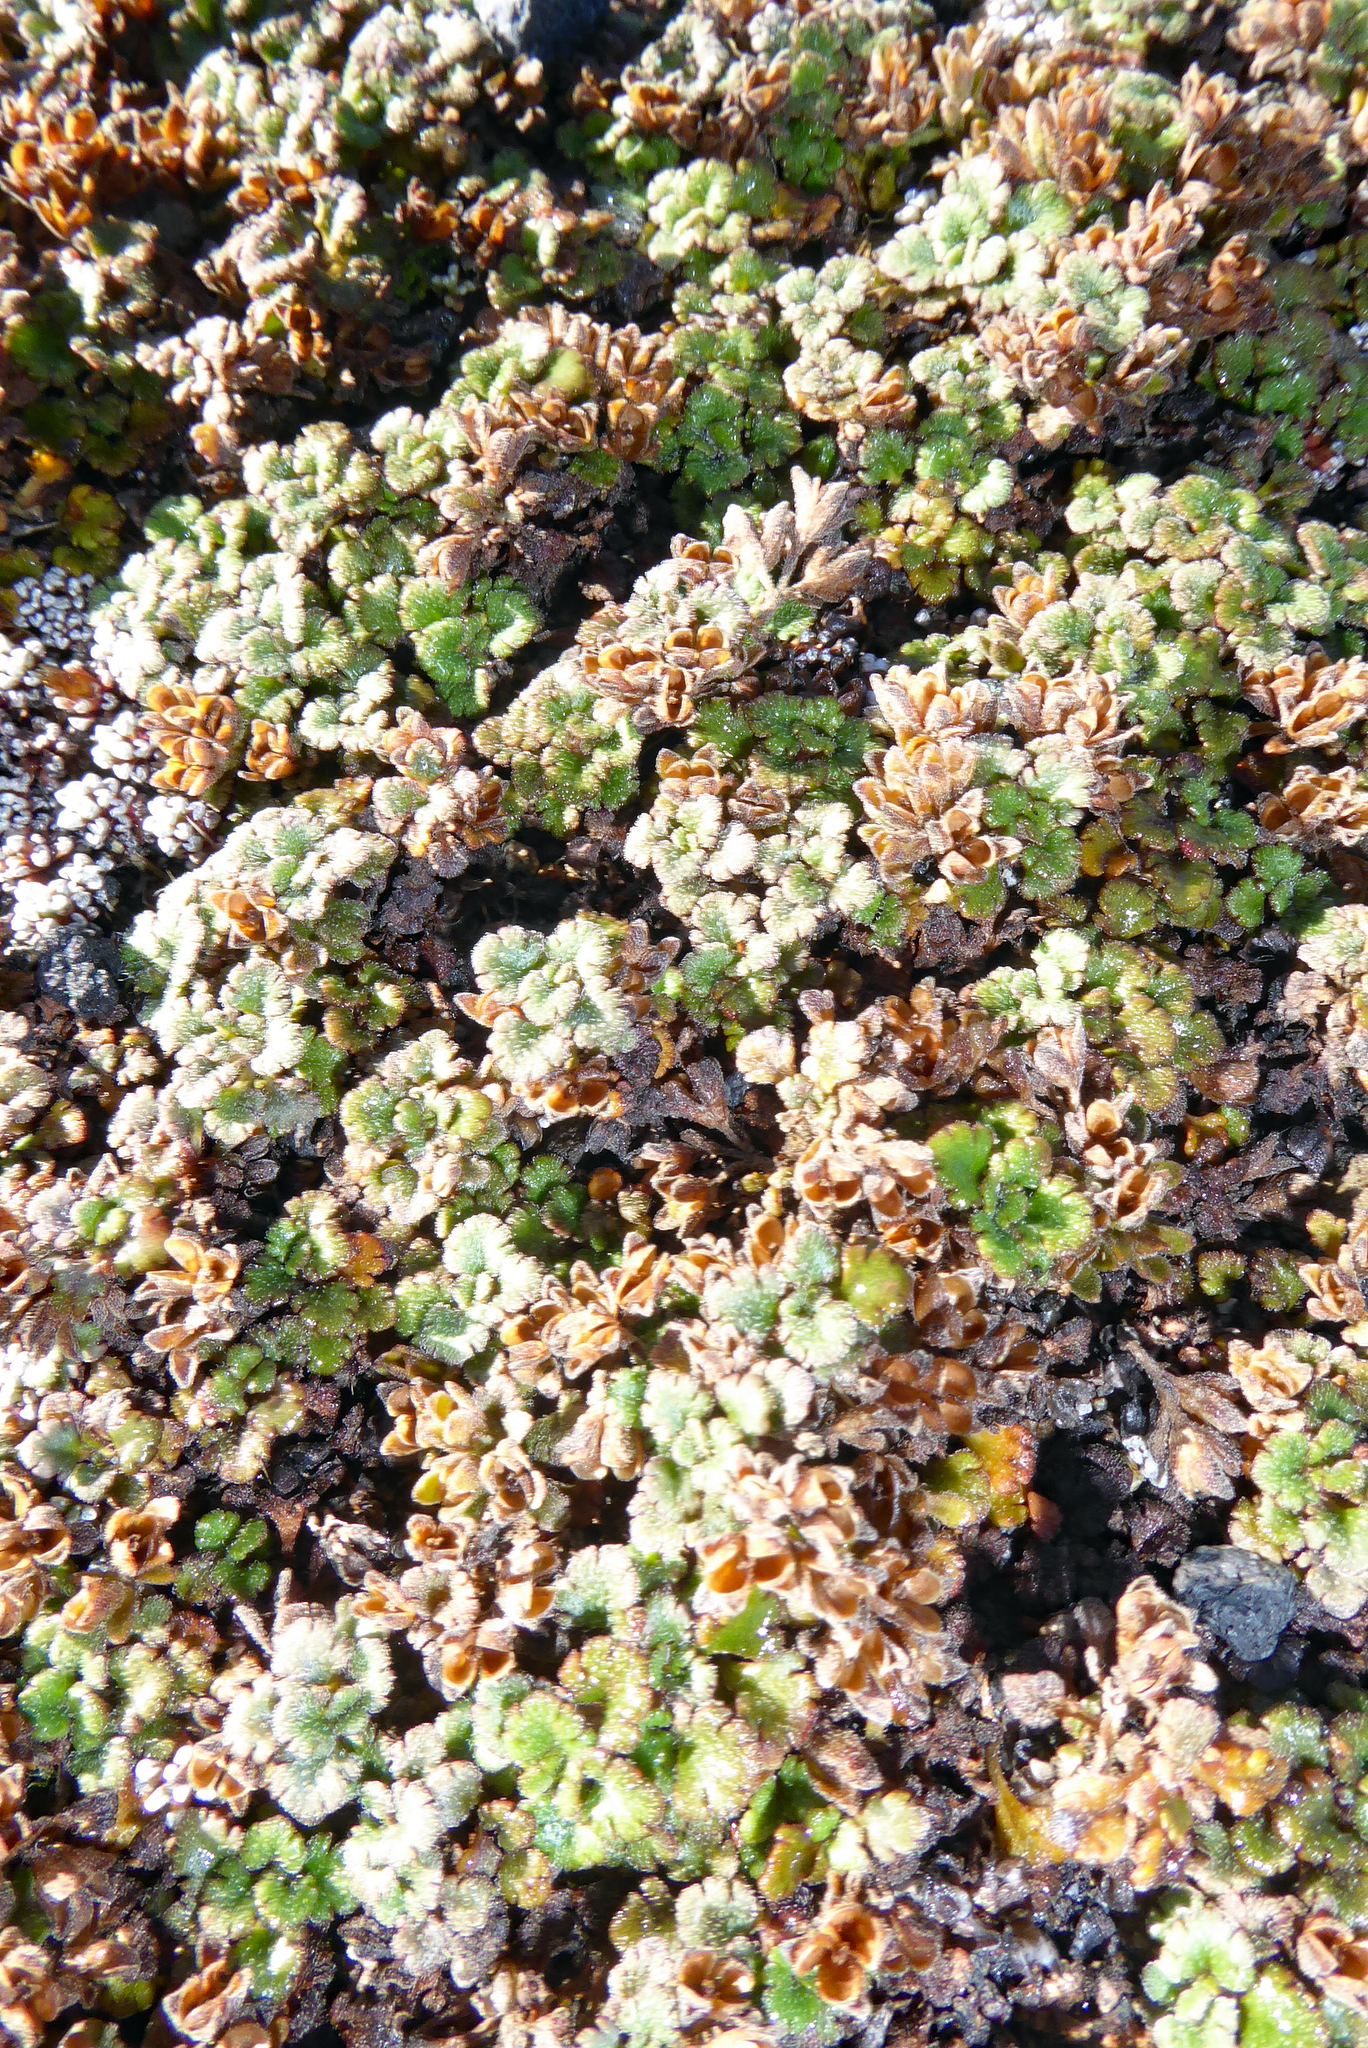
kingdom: Plantae
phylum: Tracheophyta
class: Magnoliopsida
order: Lamiales
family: Plantaginaceae
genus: Veronica
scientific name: Veronica spathulata
